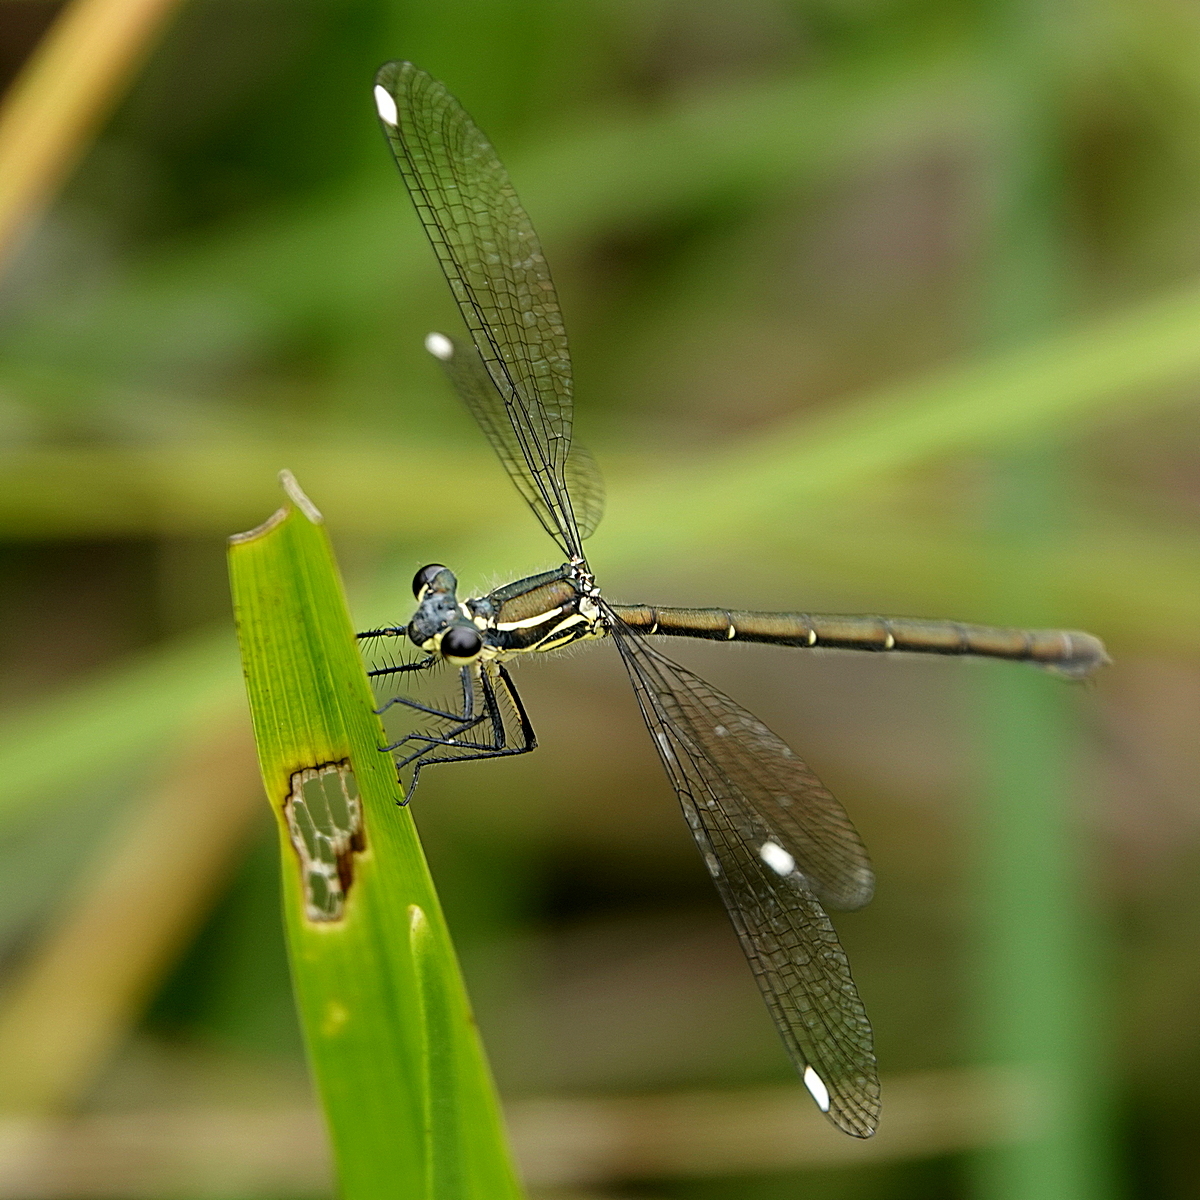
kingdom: Animalia
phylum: Arthropoda
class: Insecta
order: Odonata
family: Argiolestidae
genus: Griseargiolestes
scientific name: Griseargiolestes eboracus
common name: Grey-chested flatwing
